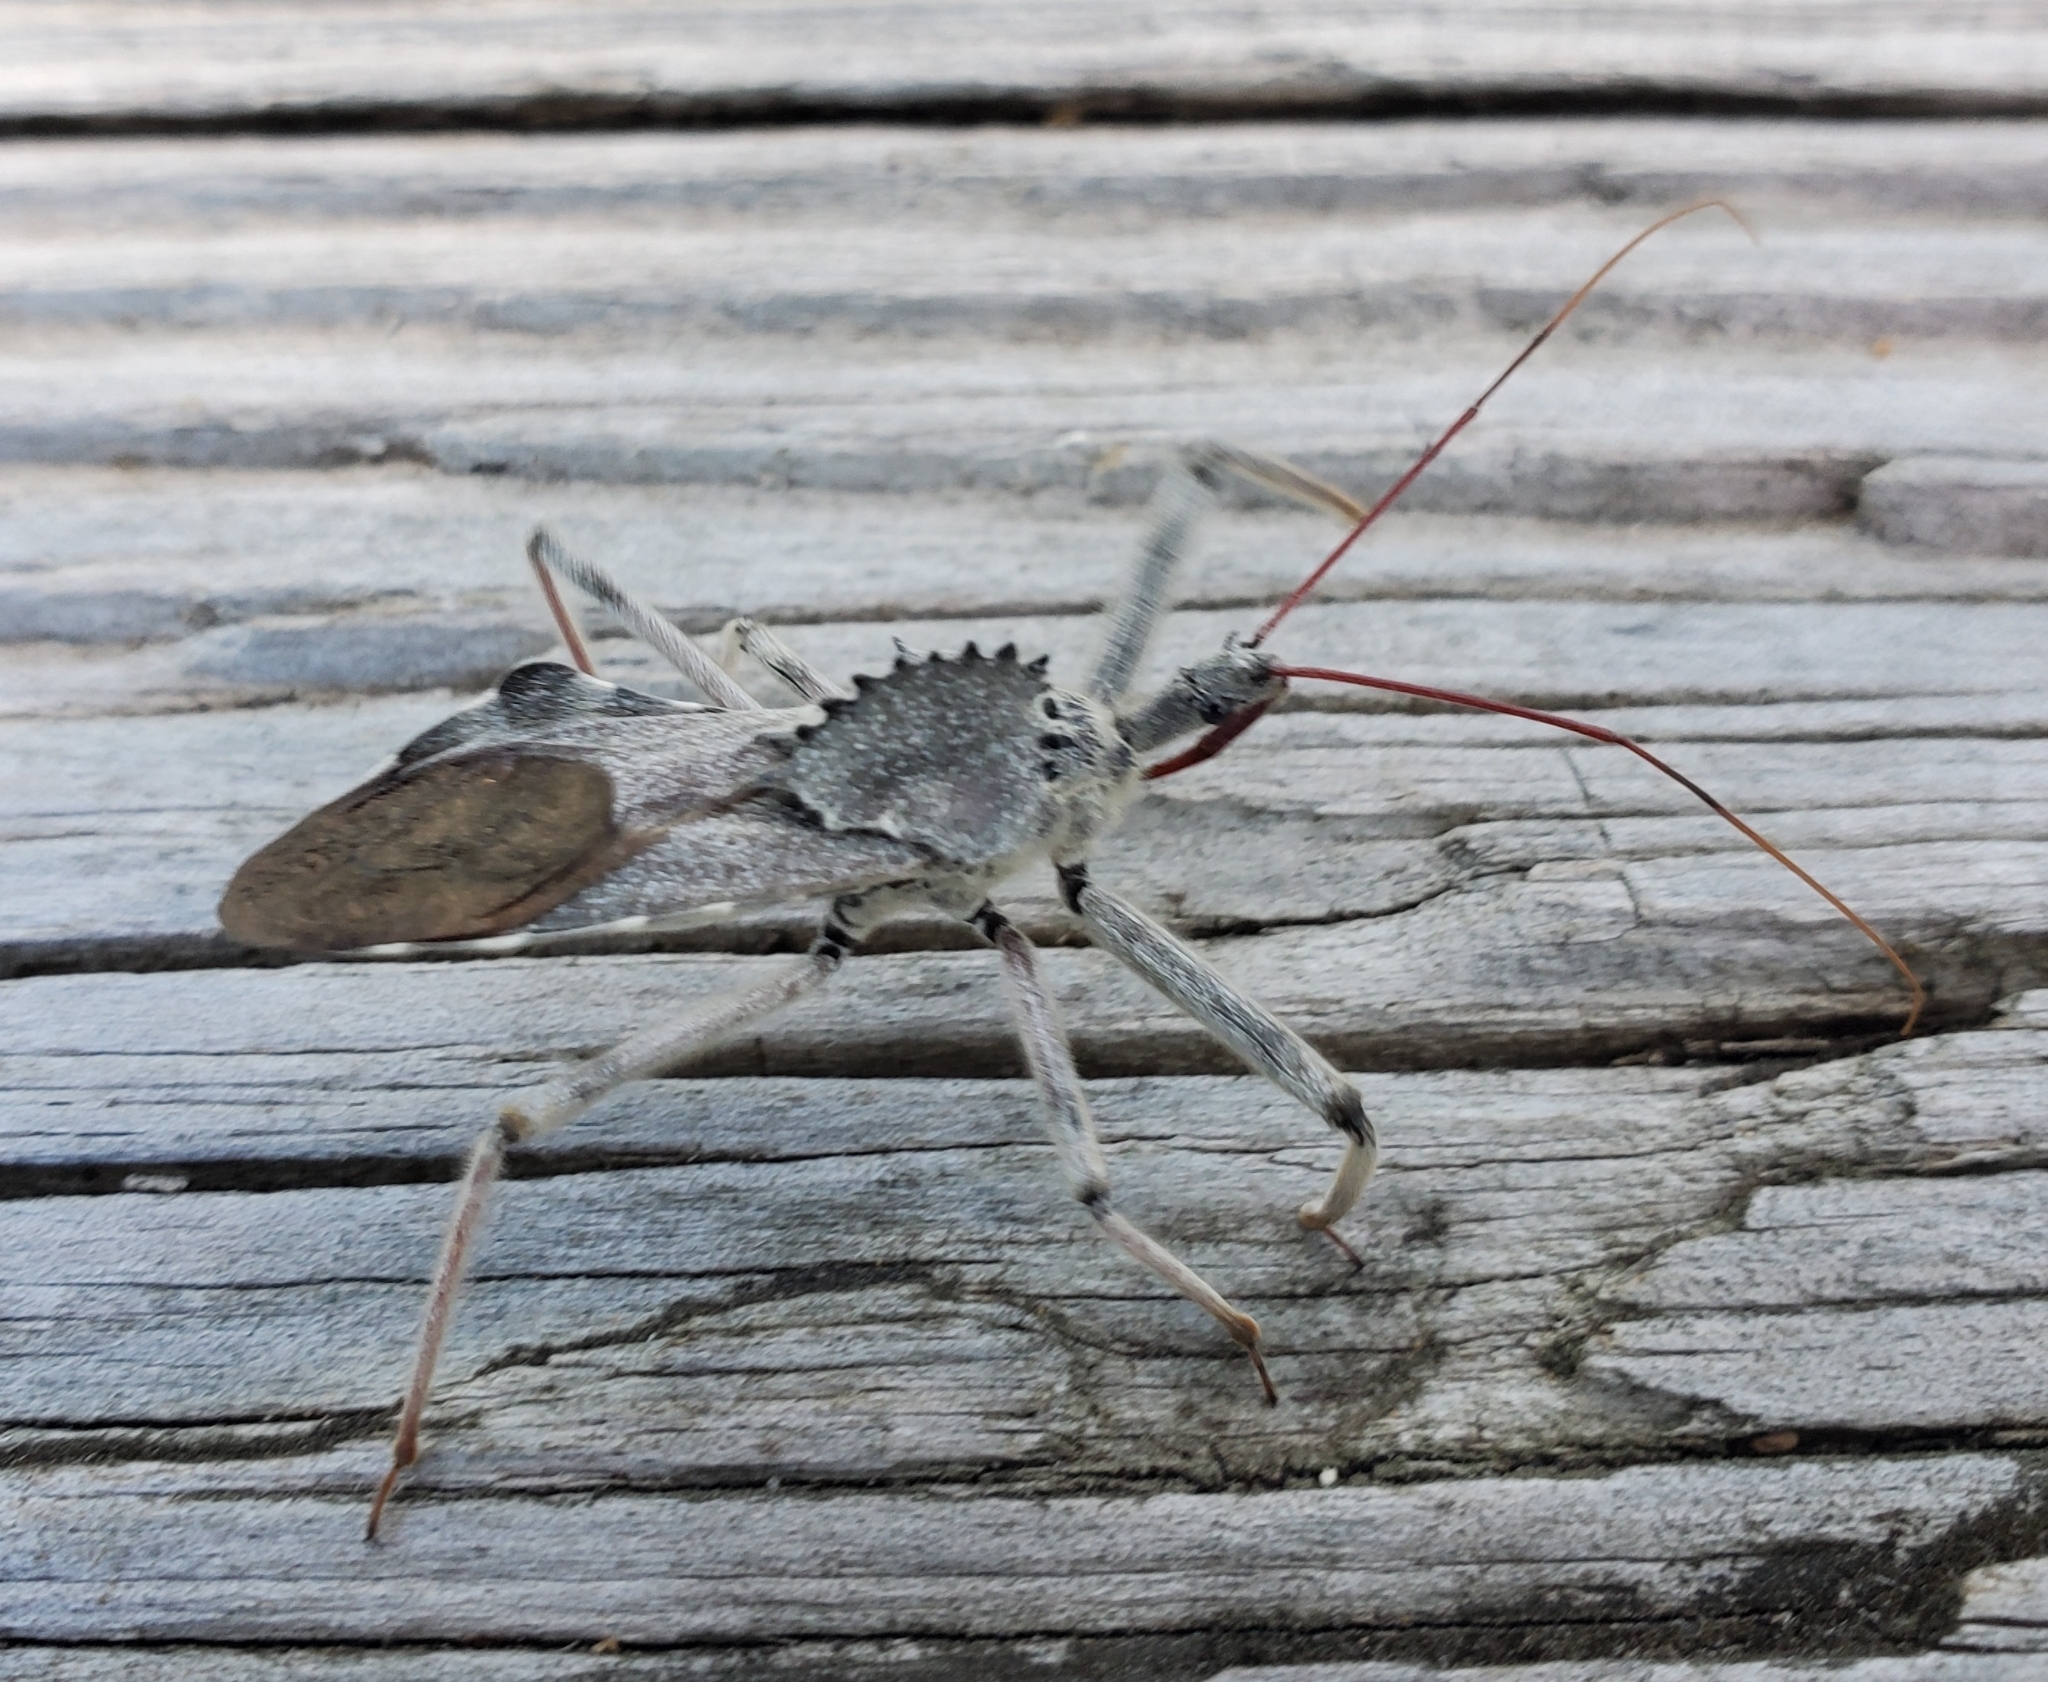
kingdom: Animalia
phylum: Arthropoda
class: Insecta
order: Hemiptera
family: Reduviidae
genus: Arilus
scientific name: Arilus cristatus
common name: North american wheel bug
